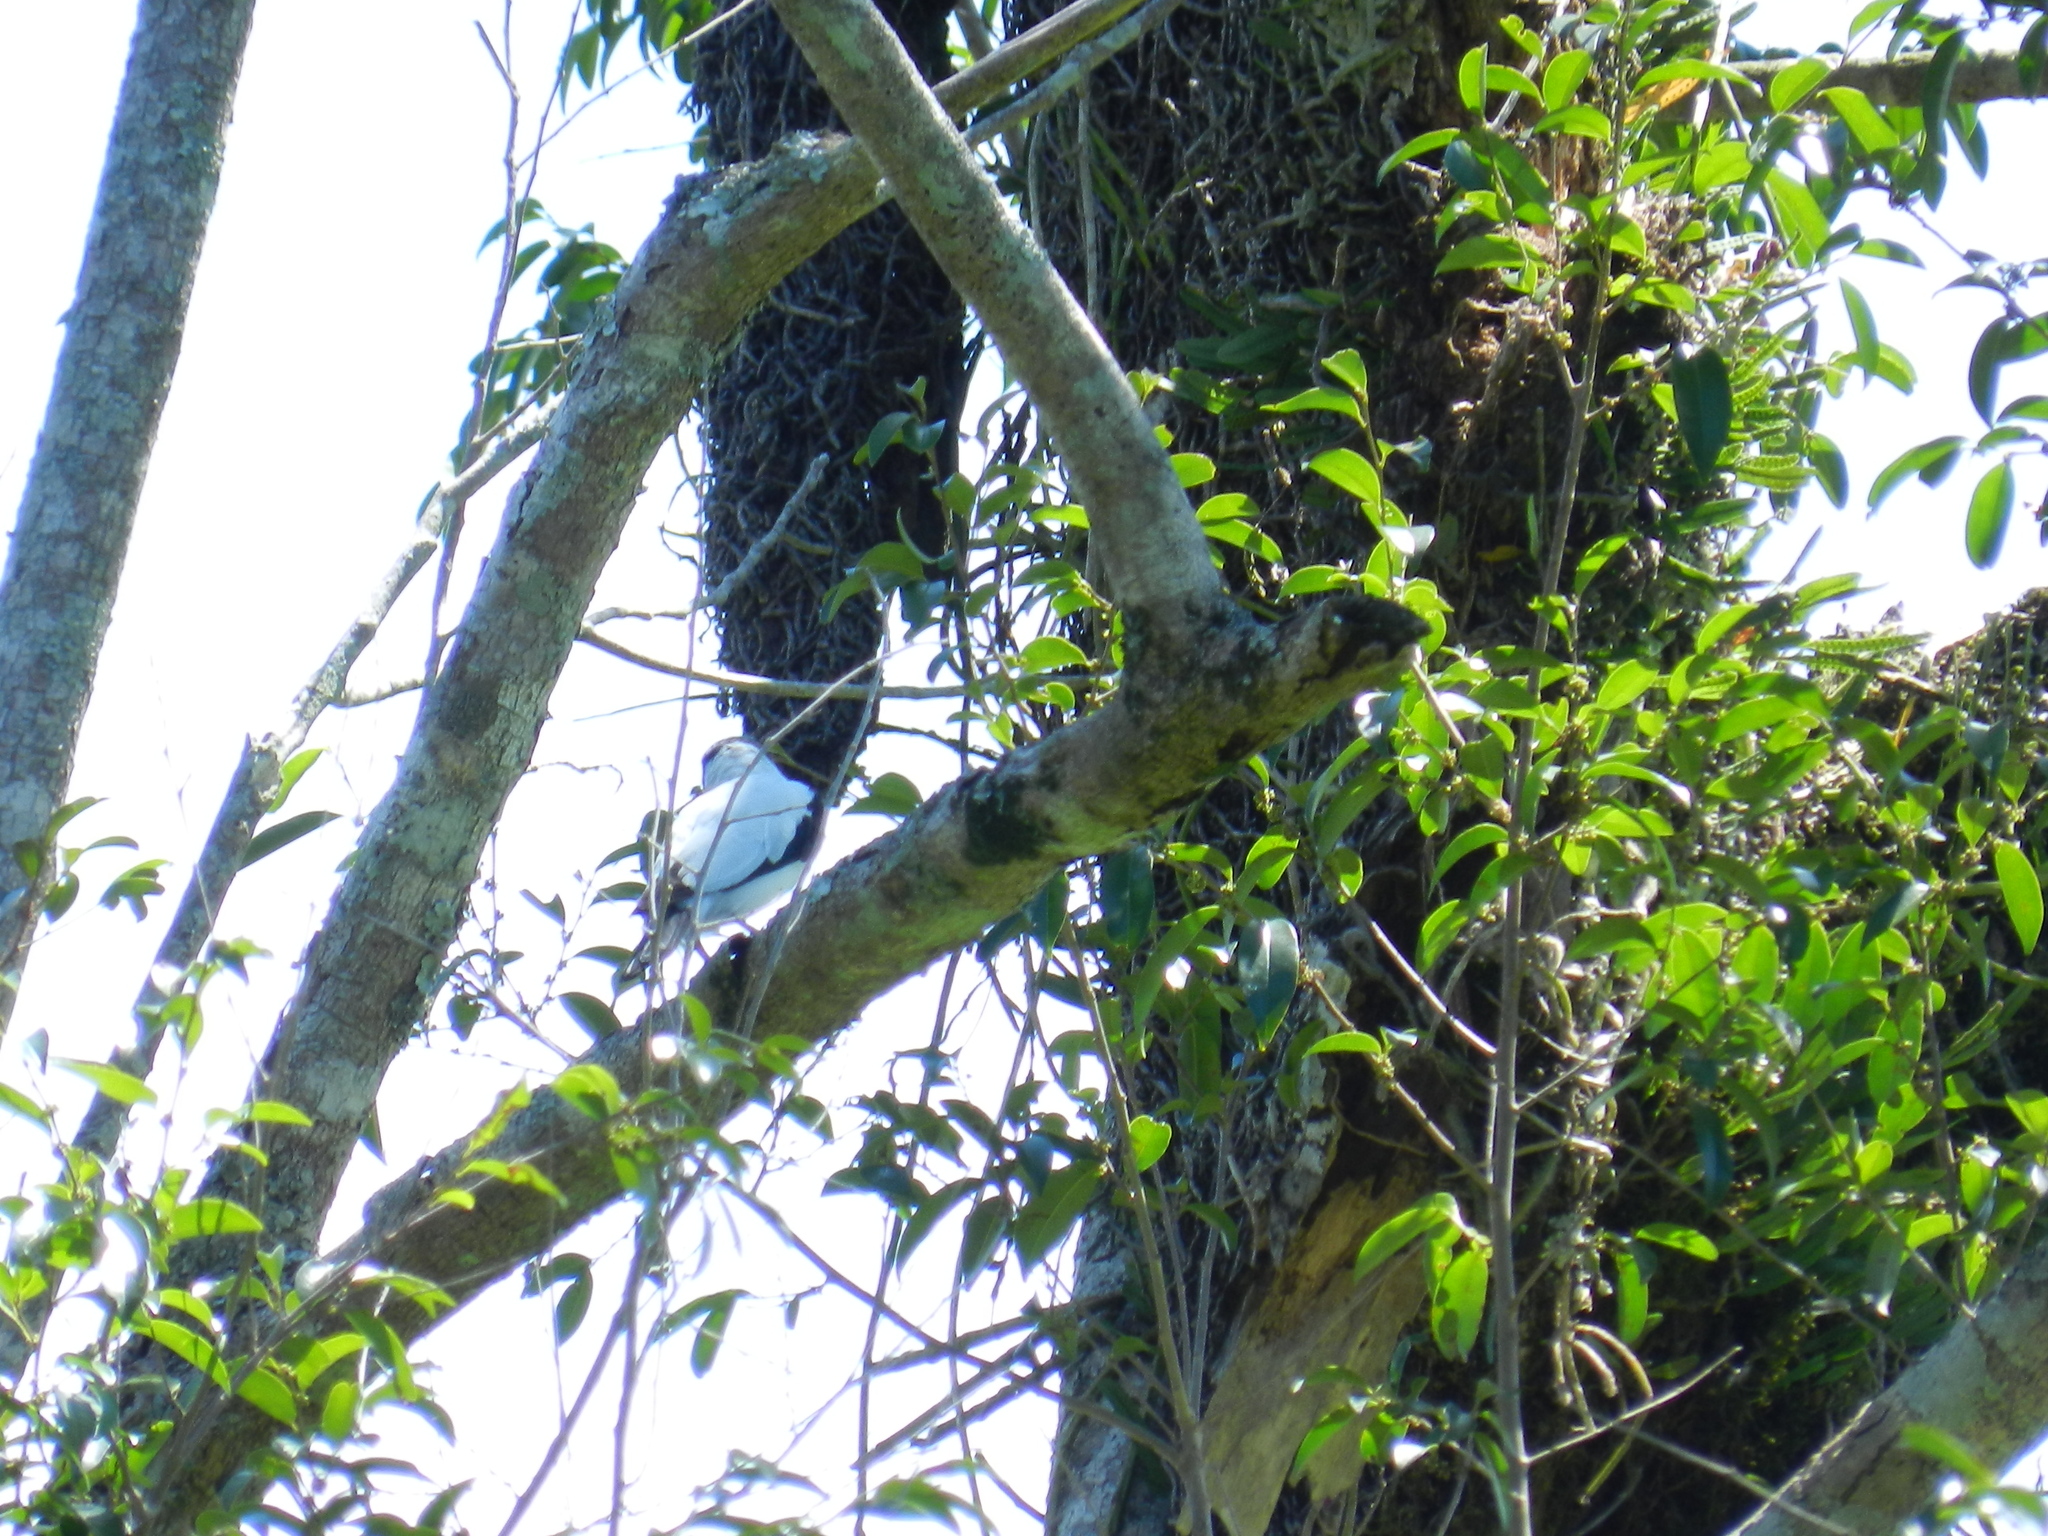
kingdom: Animalia
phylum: Chordata
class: Aves
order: Passeriformes
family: Cotingidae
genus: Tityra
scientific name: Tityra cayana
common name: Black-tailed tityra
